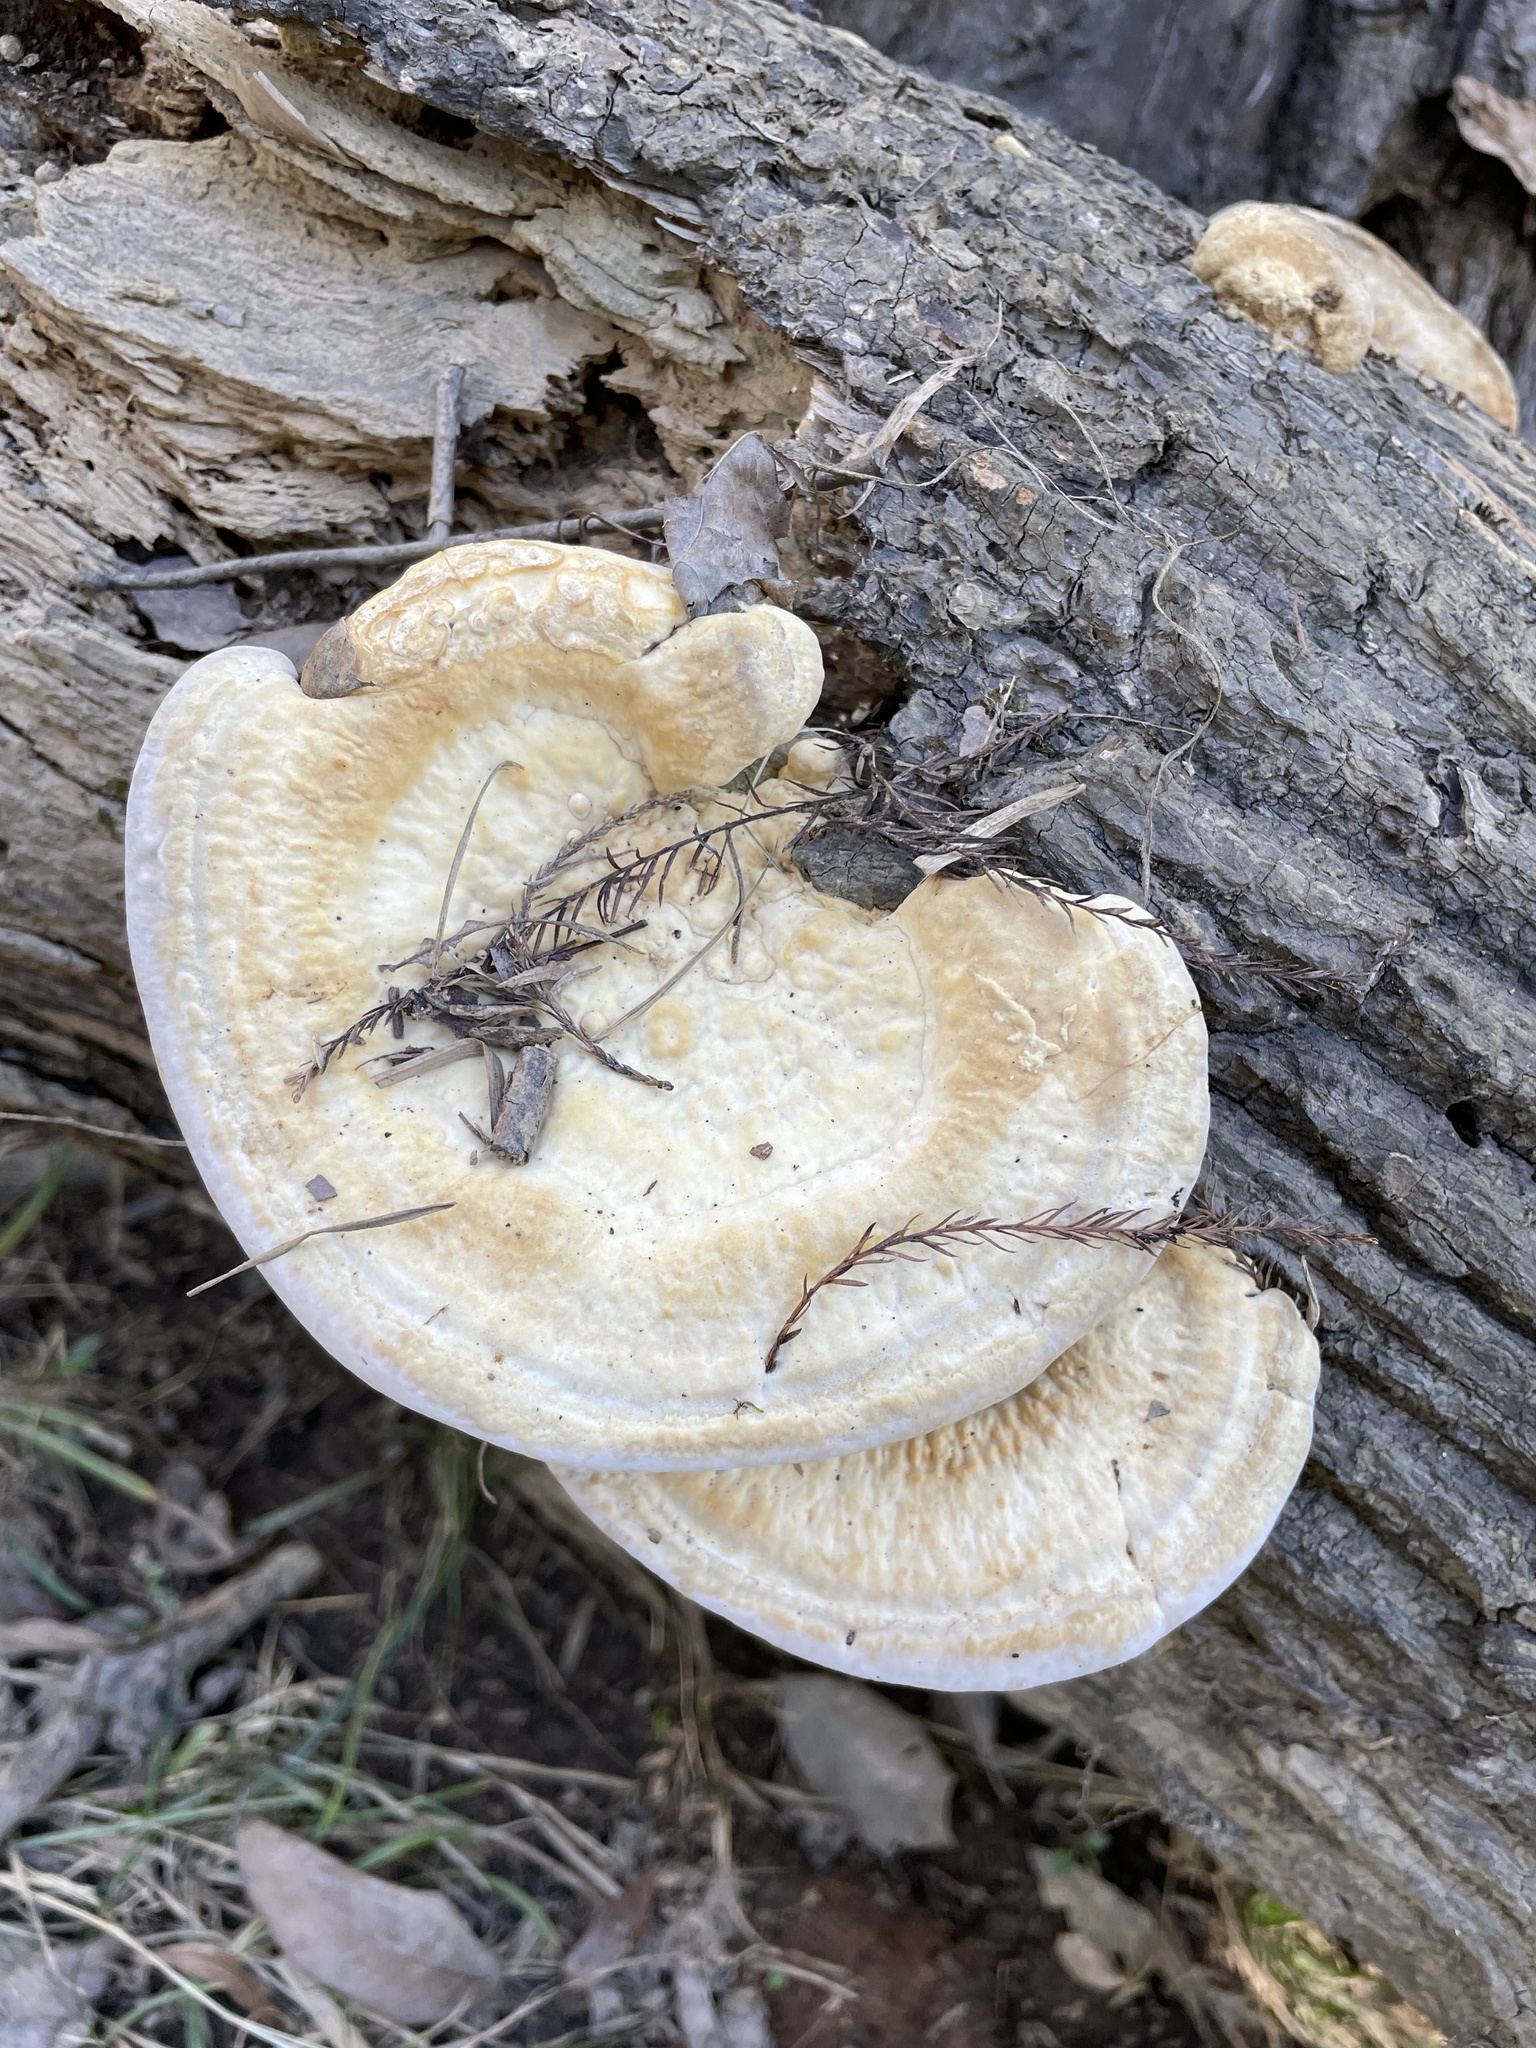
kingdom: Fungi
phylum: Basidiomycota
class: Agaricomycetes
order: Polyporales
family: Polyporaceae
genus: Trametes
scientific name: Trametes lactinea
